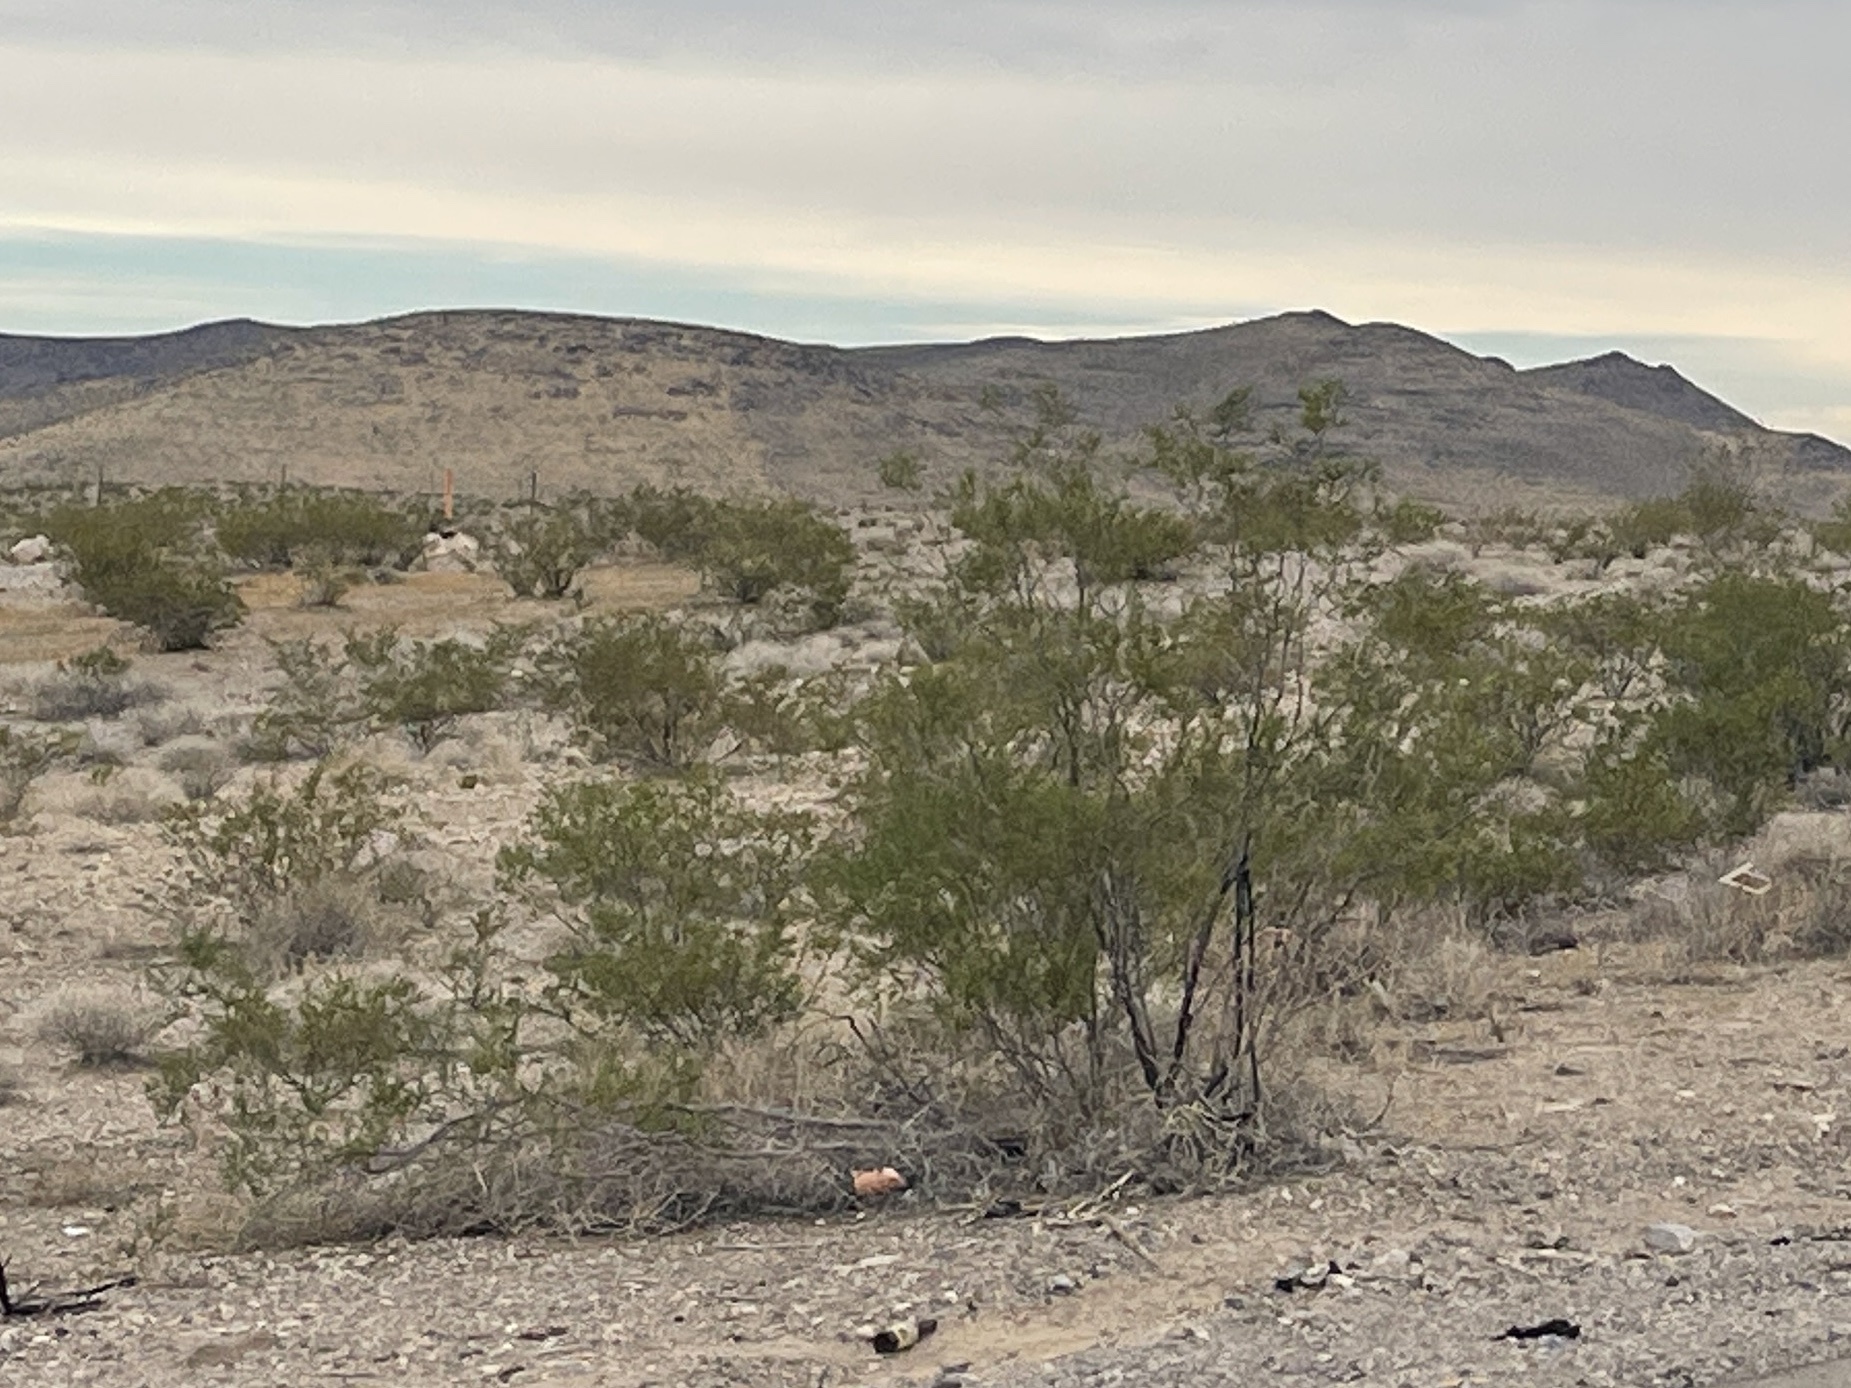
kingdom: Plantae
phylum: Tracheophyta
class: Magnoliopsida
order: Zygophyllales
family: Zygophyllaceae
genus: Larrea
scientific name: Larrea tridentata
